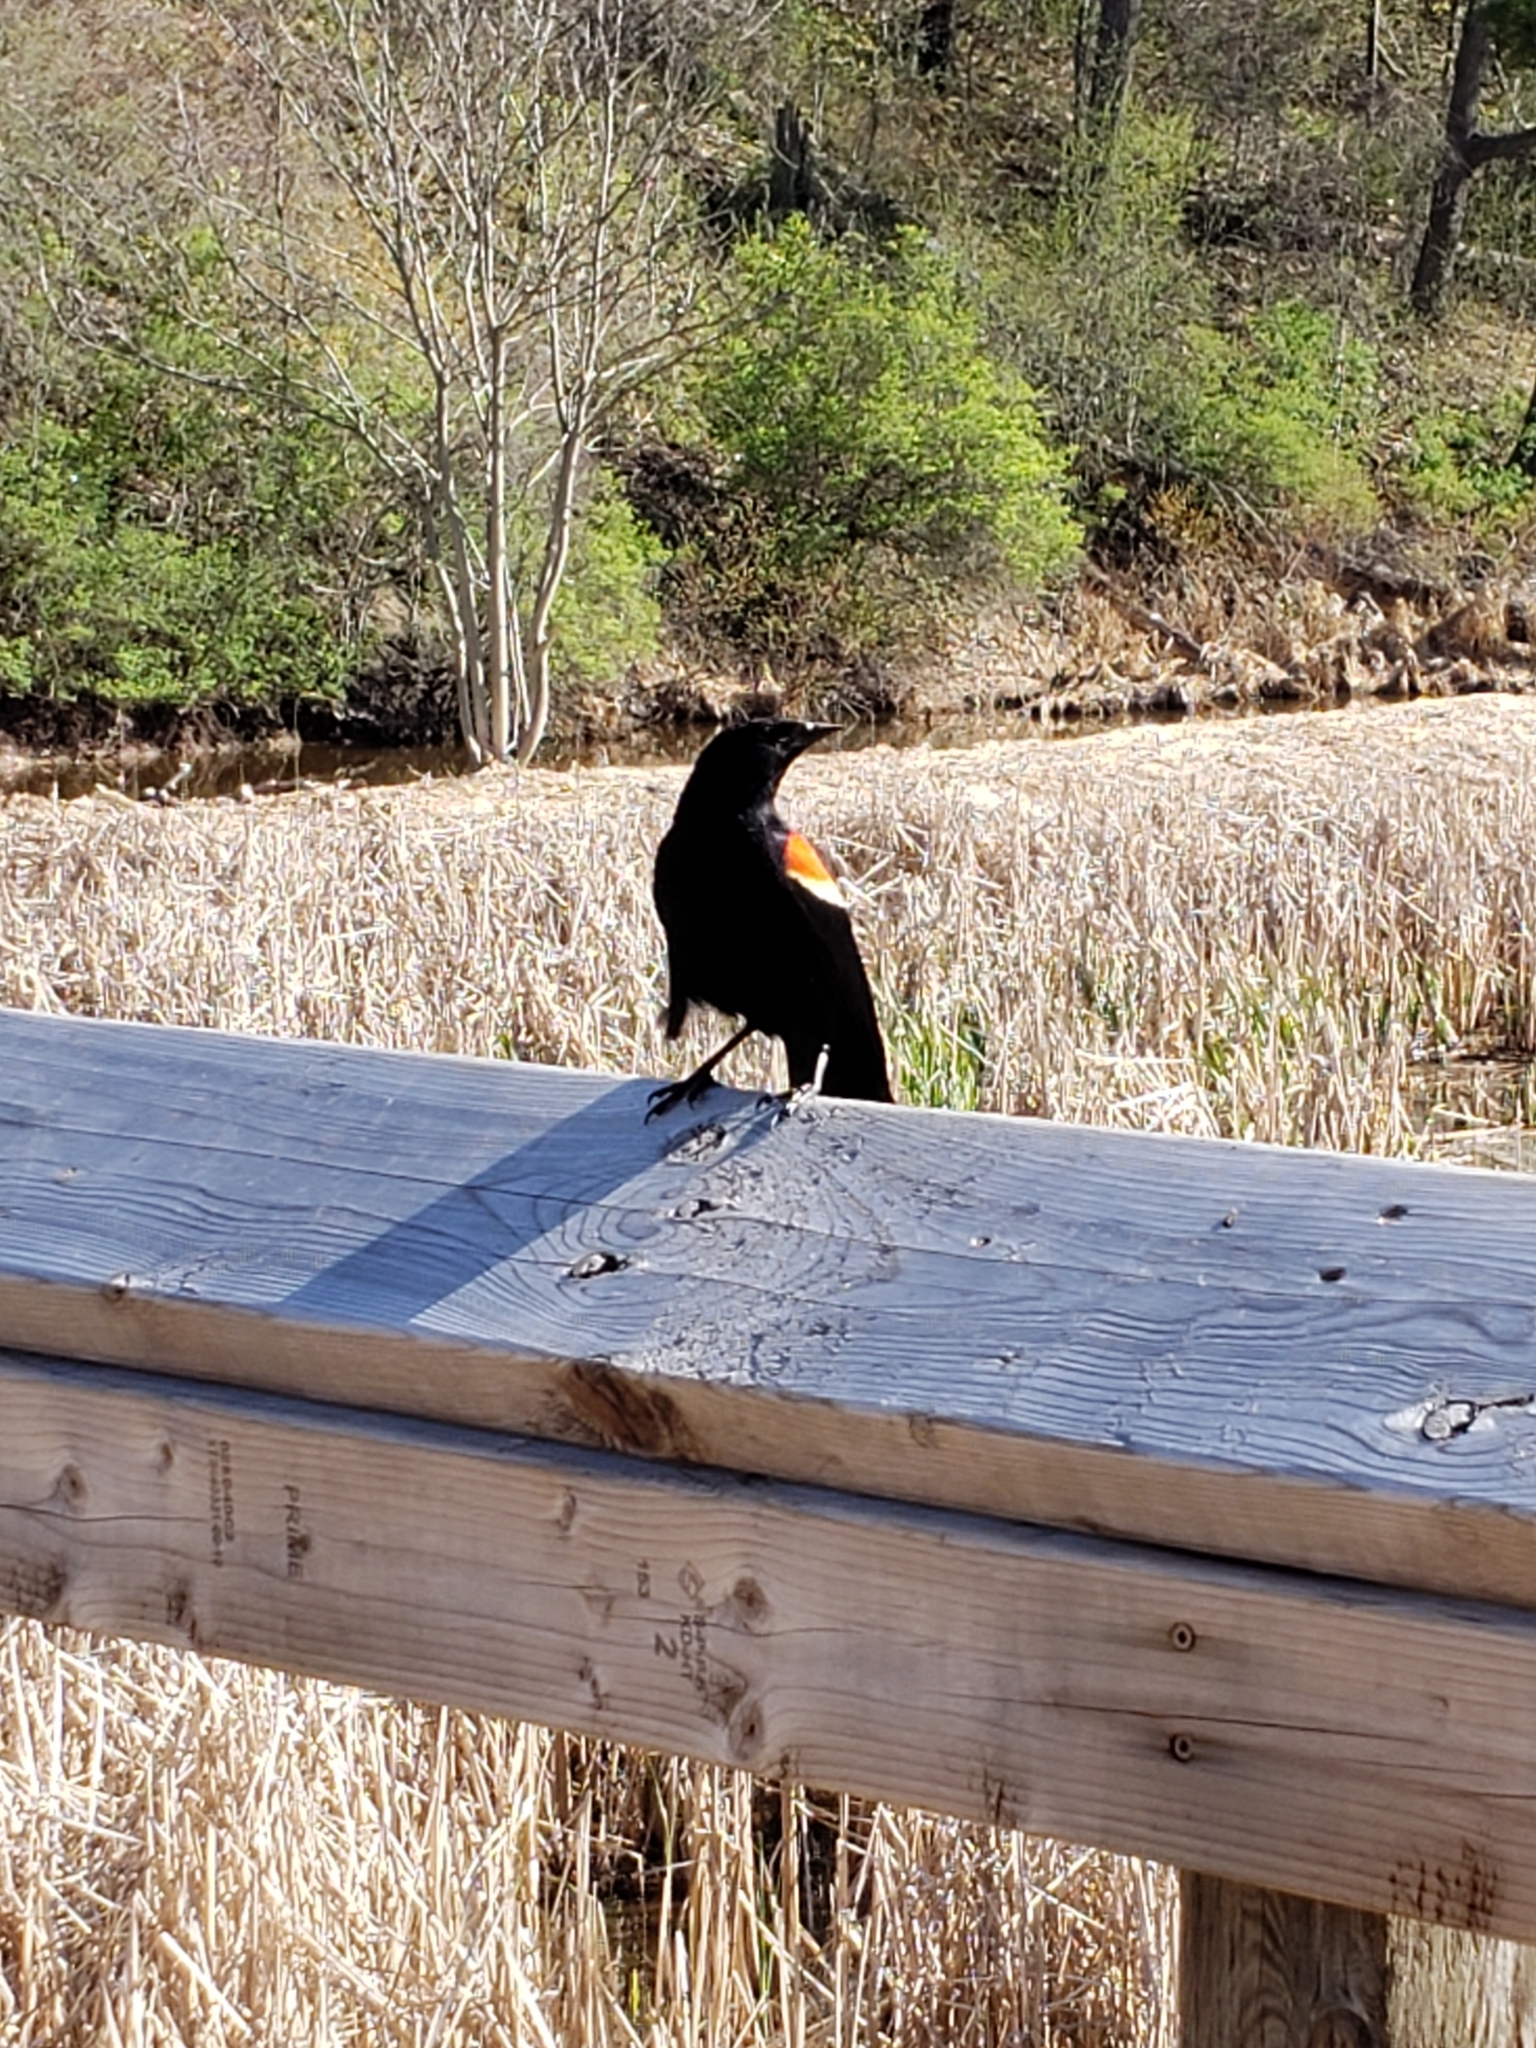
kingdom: Animalia
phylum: Chordata
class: Aves
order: Passeriformes
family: Icteridae
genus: Agelaius
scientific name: Agelaius phoeniceus
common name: Red-winged blackbird
